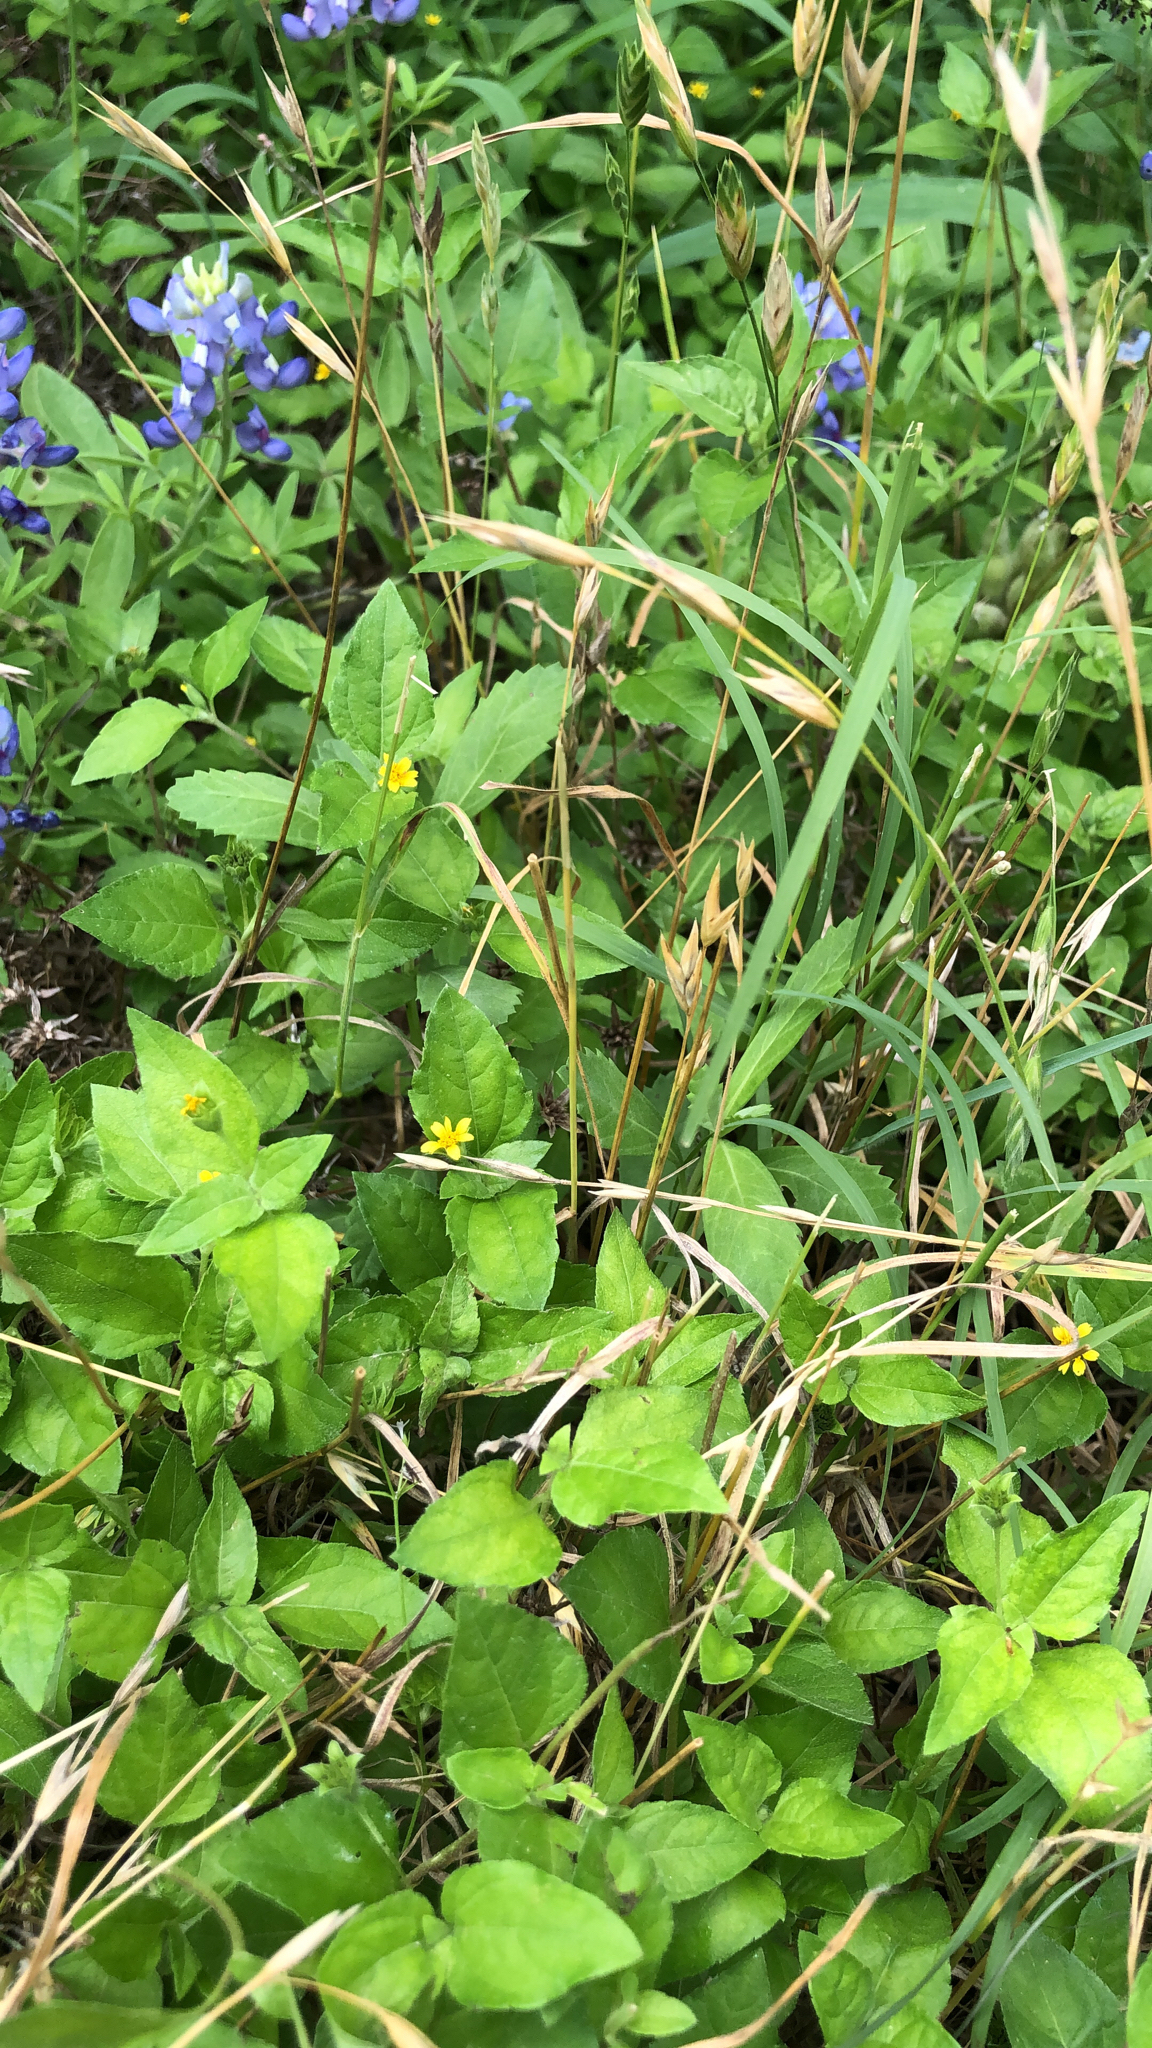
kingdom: Plantae
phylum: Tracheophyta
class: Magnoliopsida
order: Asterales
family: Asteraceae
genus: Calyptocarpus
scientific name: Calyptocarpus vialis
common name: Straggler daisy
